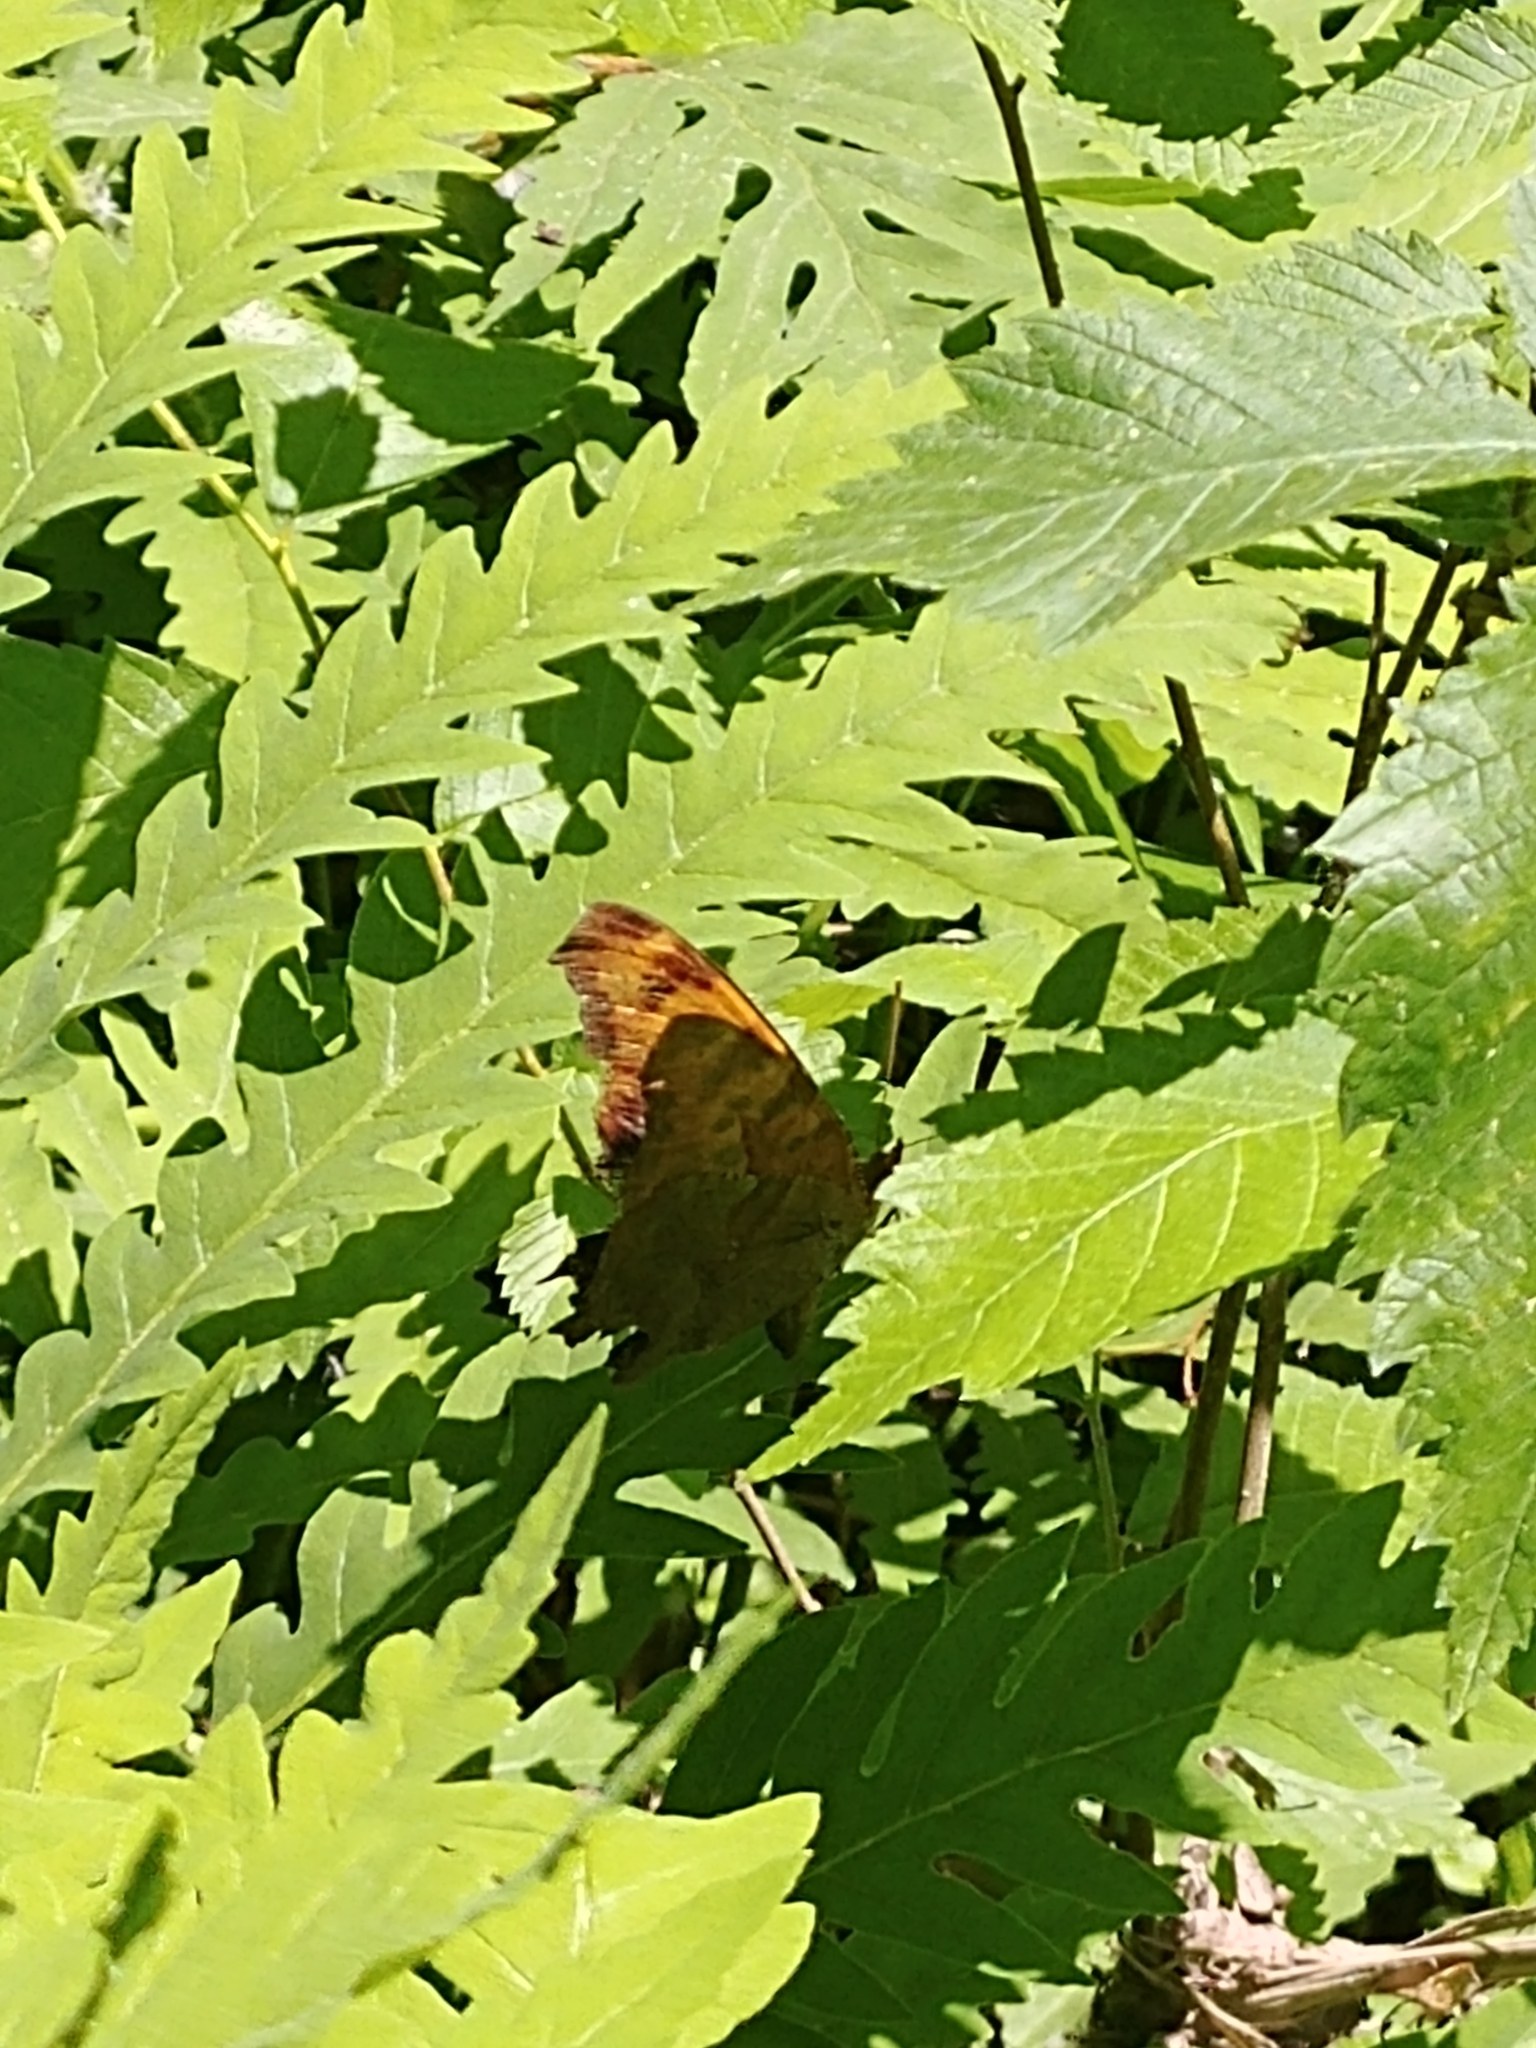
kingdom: Animalia
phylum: Arthropoda
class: Insecta
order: Lepidoptera
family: Nymphalidae
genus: Polygonia
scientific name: Polygonia interrogationis
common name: Question mark
